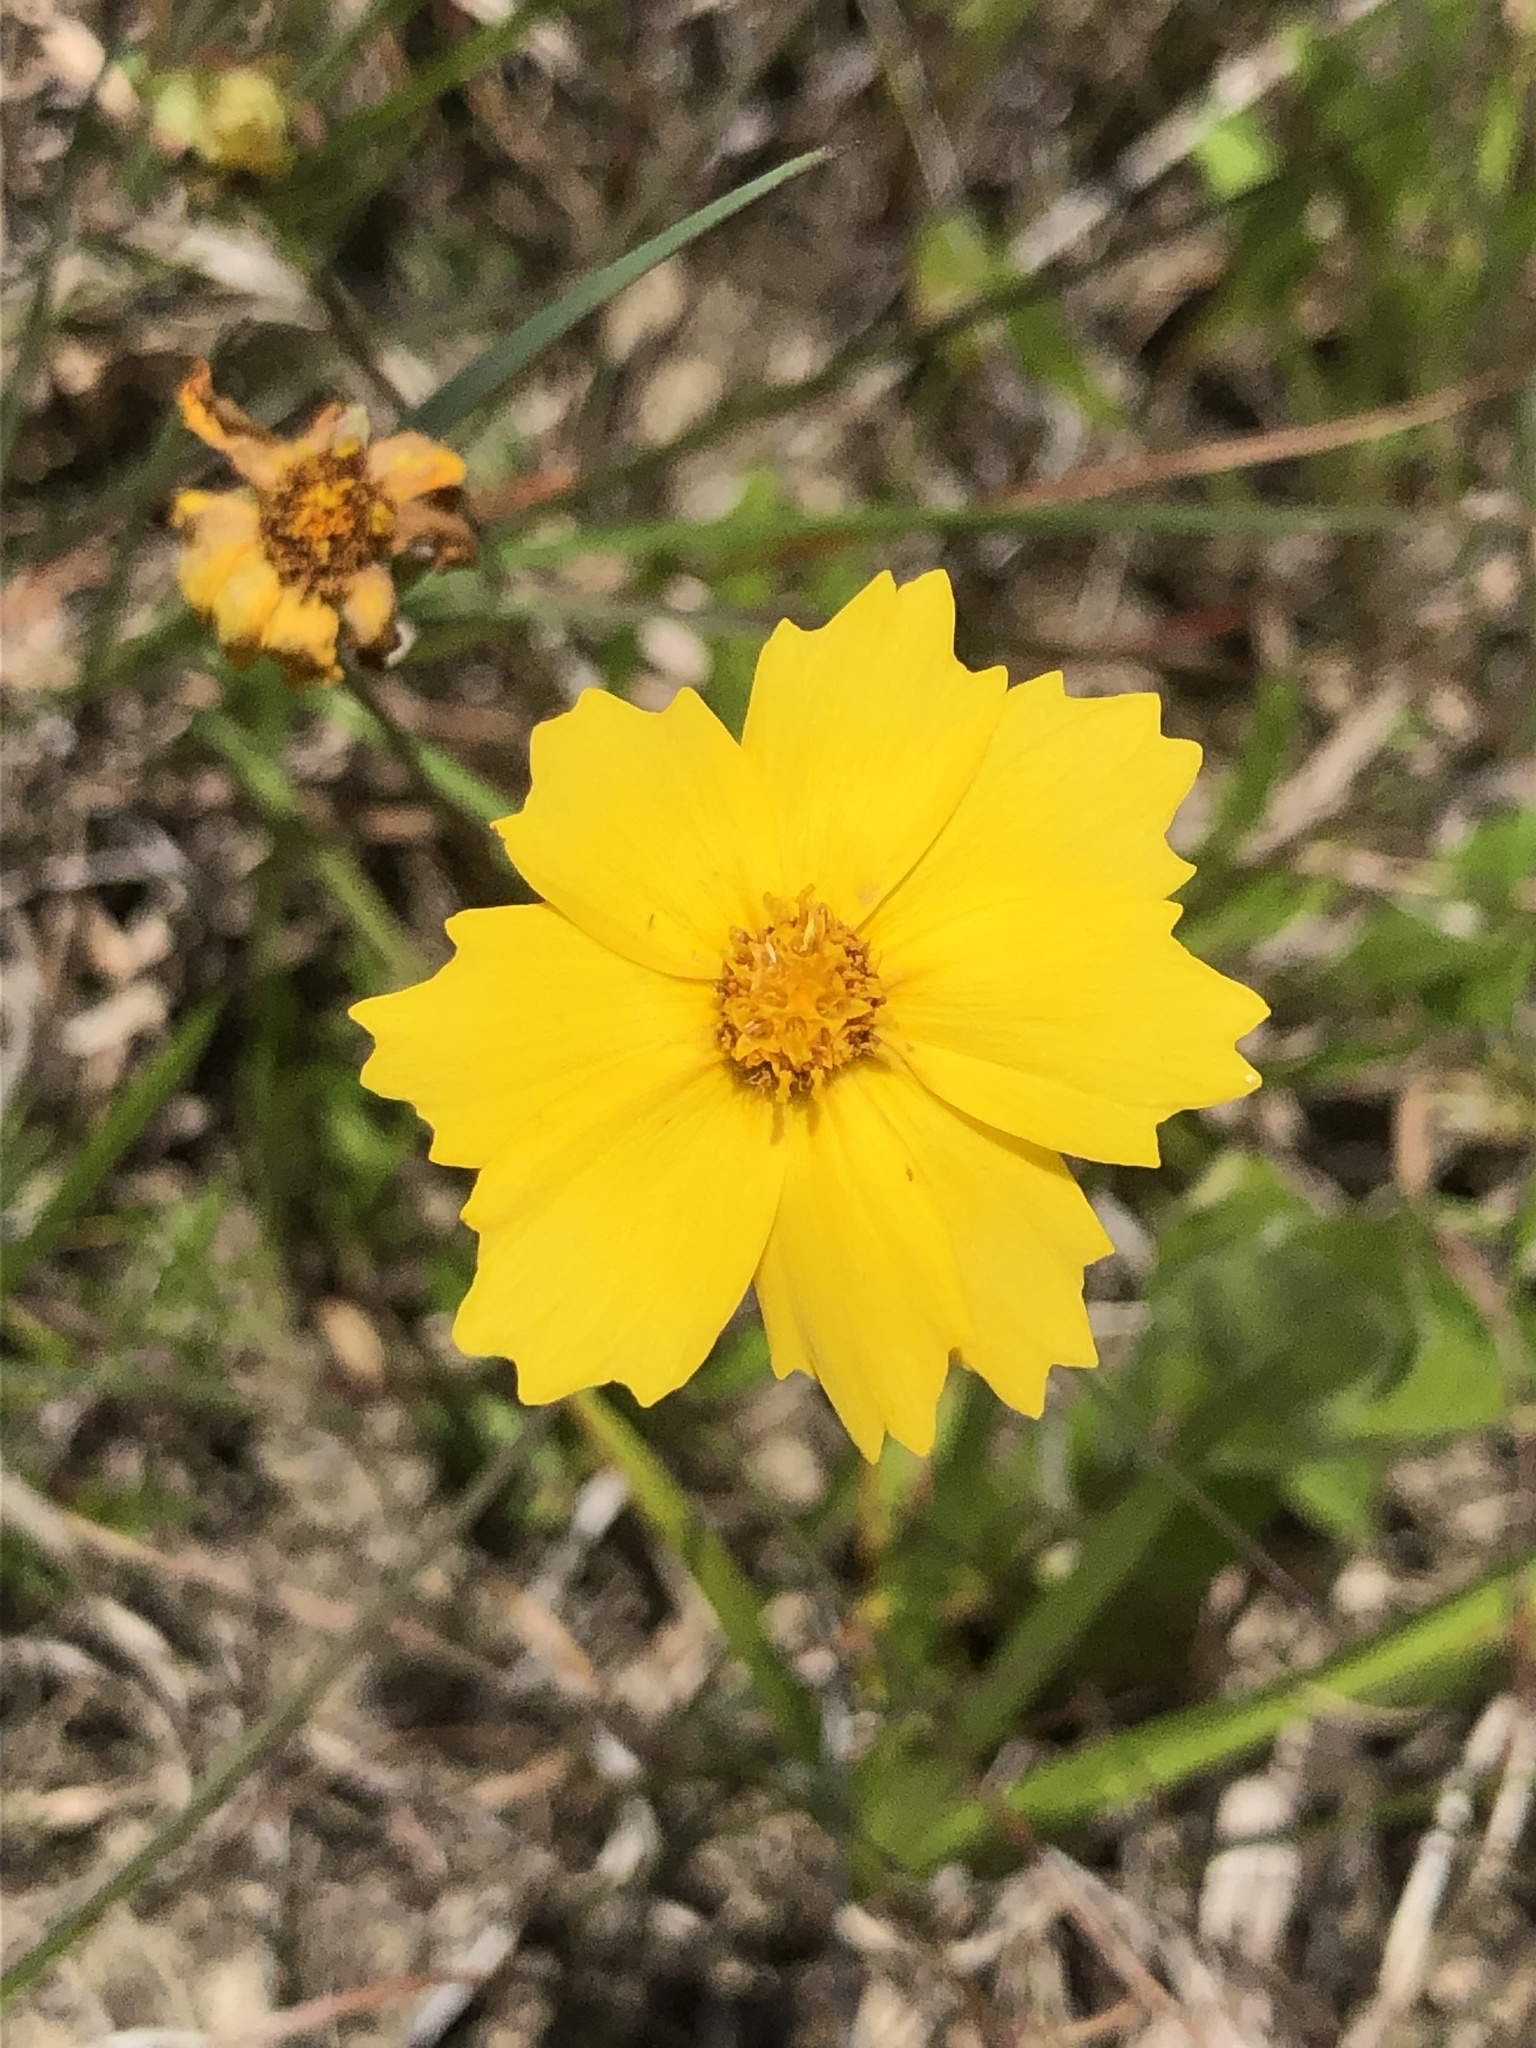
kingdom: Plantae
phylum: Tracheophyta
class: Magnoliopsida
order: Asterales
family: Asteraceae
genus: Coreopsis
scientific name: Coreopsis lanceolata
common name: Garden coreopsis
